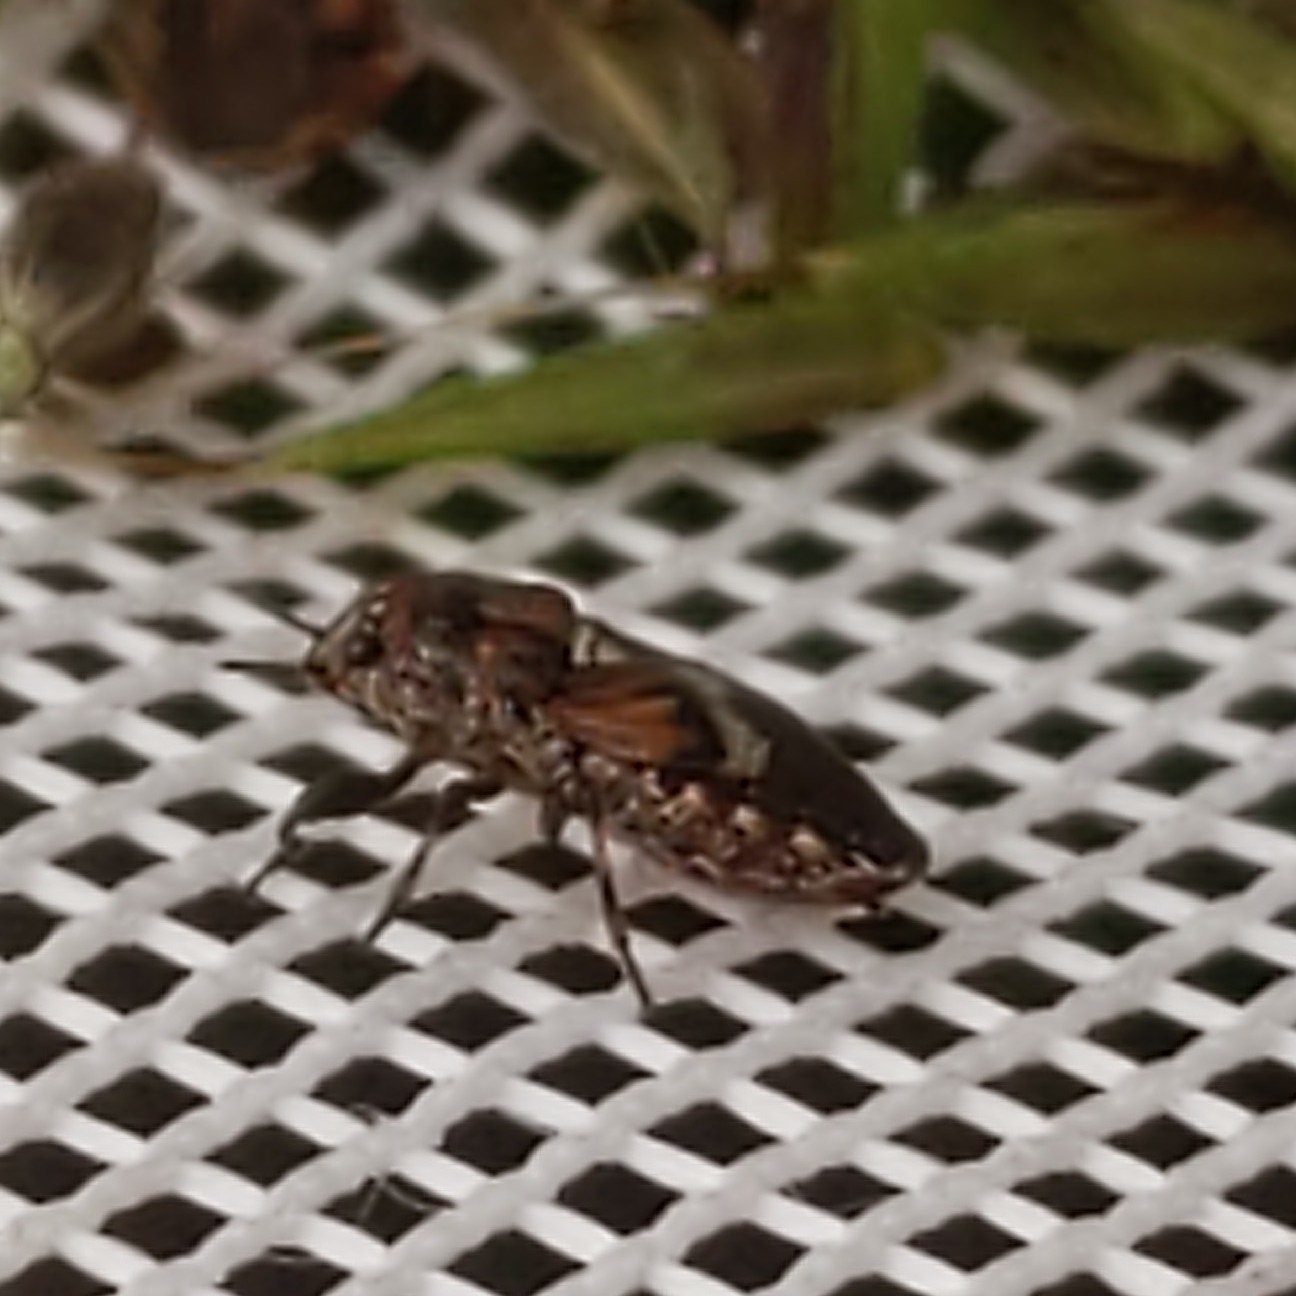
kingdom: Animalia
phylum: Arthropoda
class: Insecta
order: Hemiptera
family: Pachygronthidae
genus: Phlegyas
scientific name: Phlegyas abbreviatus
